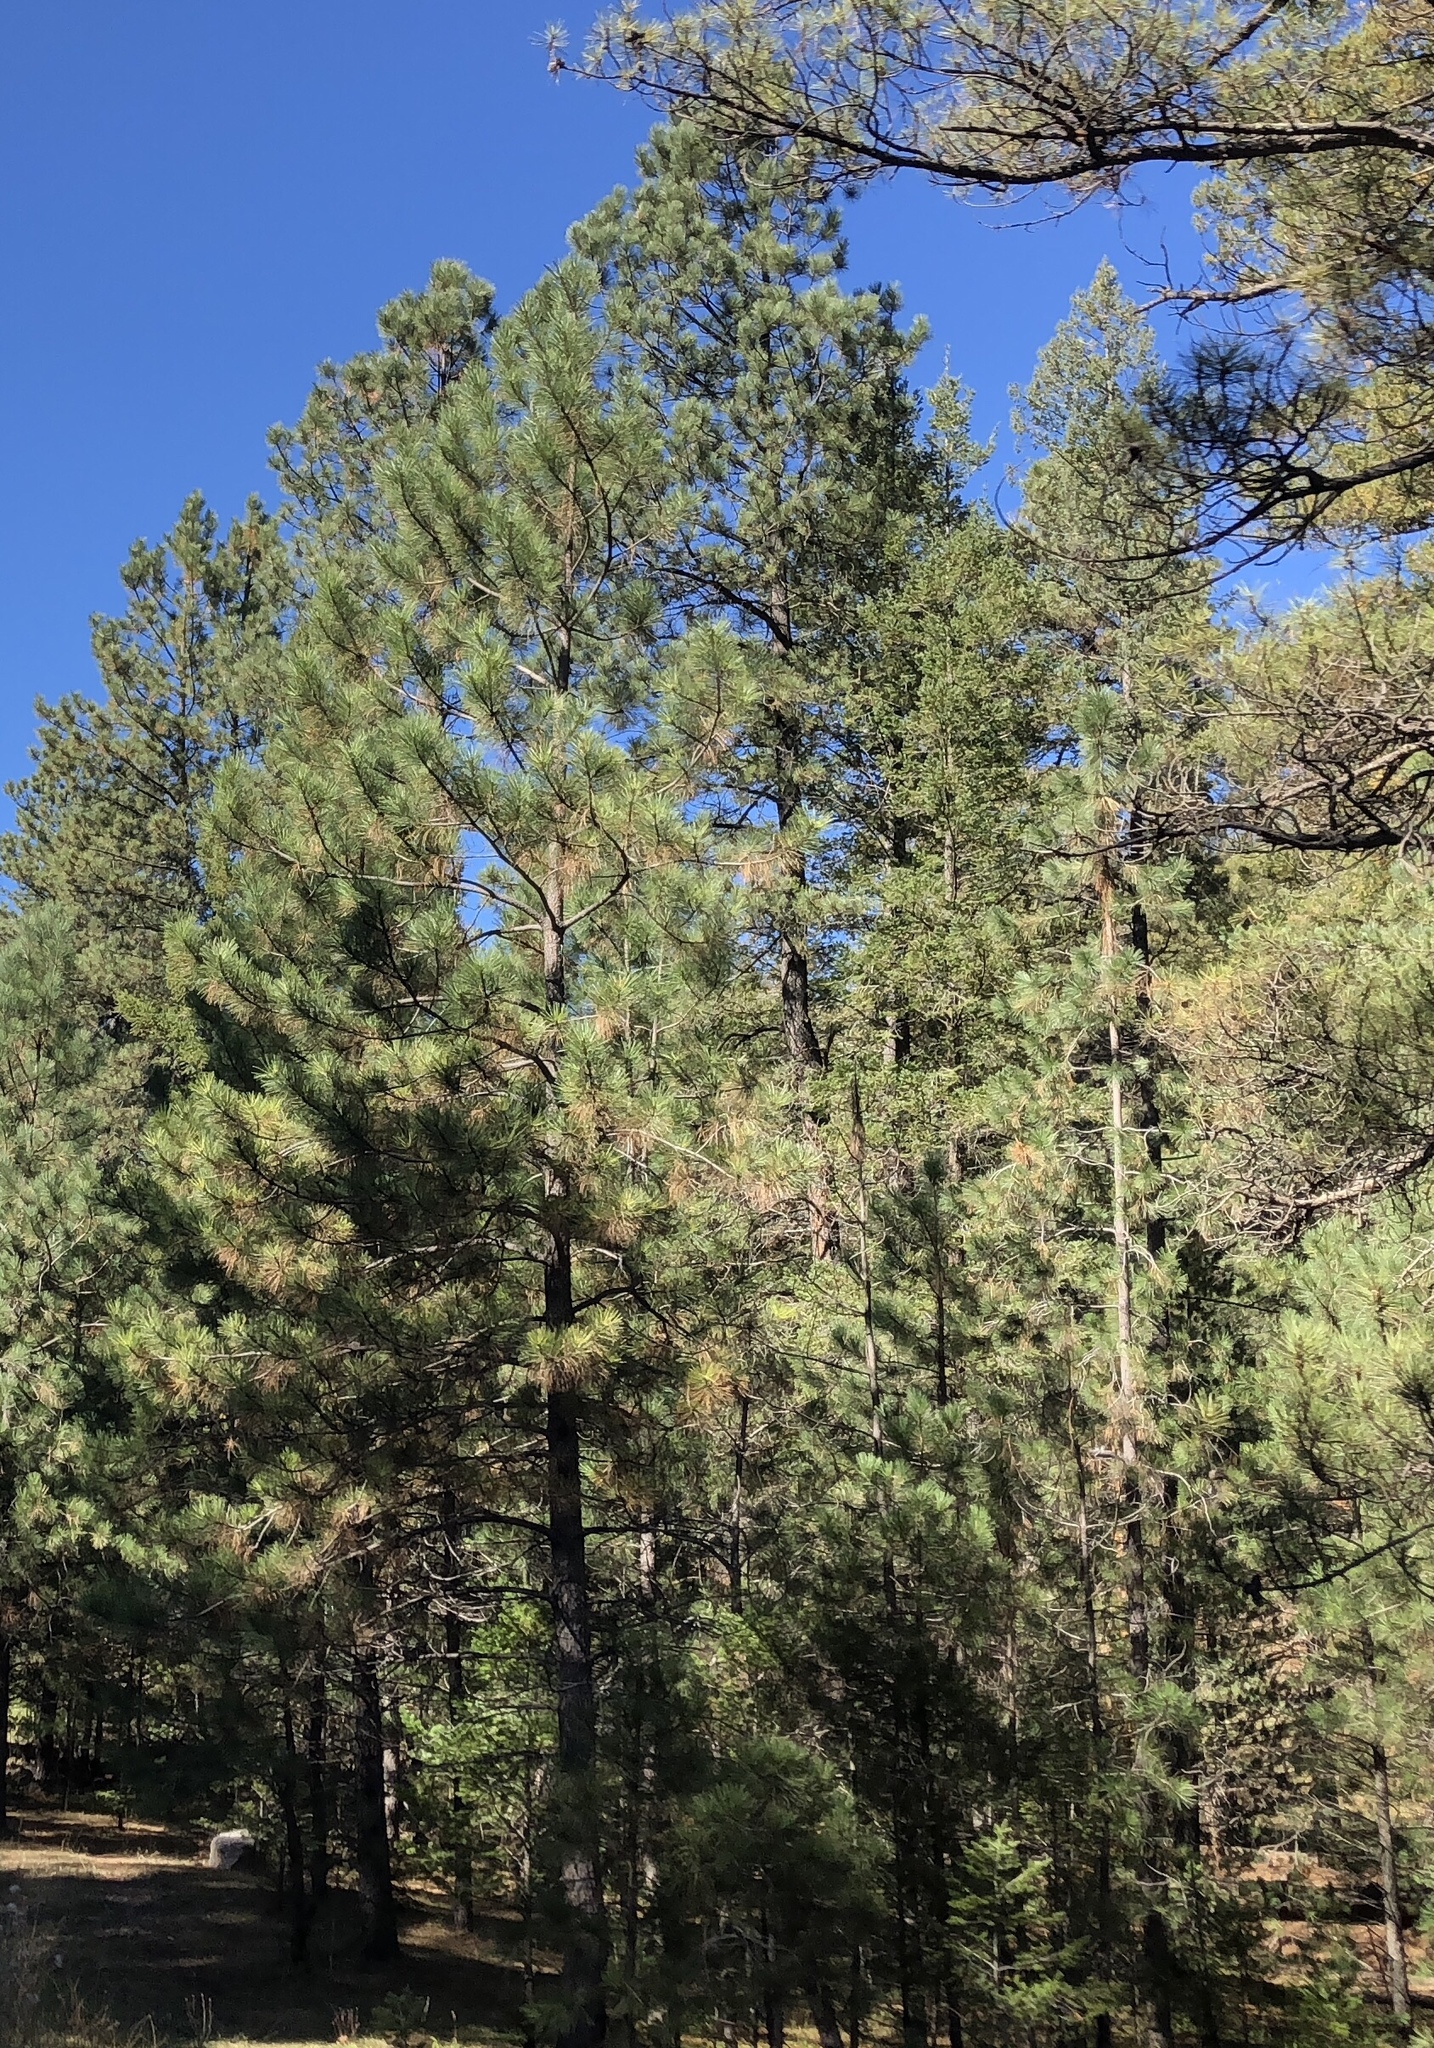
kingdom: Plantae
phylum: Tracheophyta
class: Pinopsida
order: Pinales
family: Pinaceae
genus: Pinus
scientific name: Pinus ponderosa
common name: Western yellow-pine
